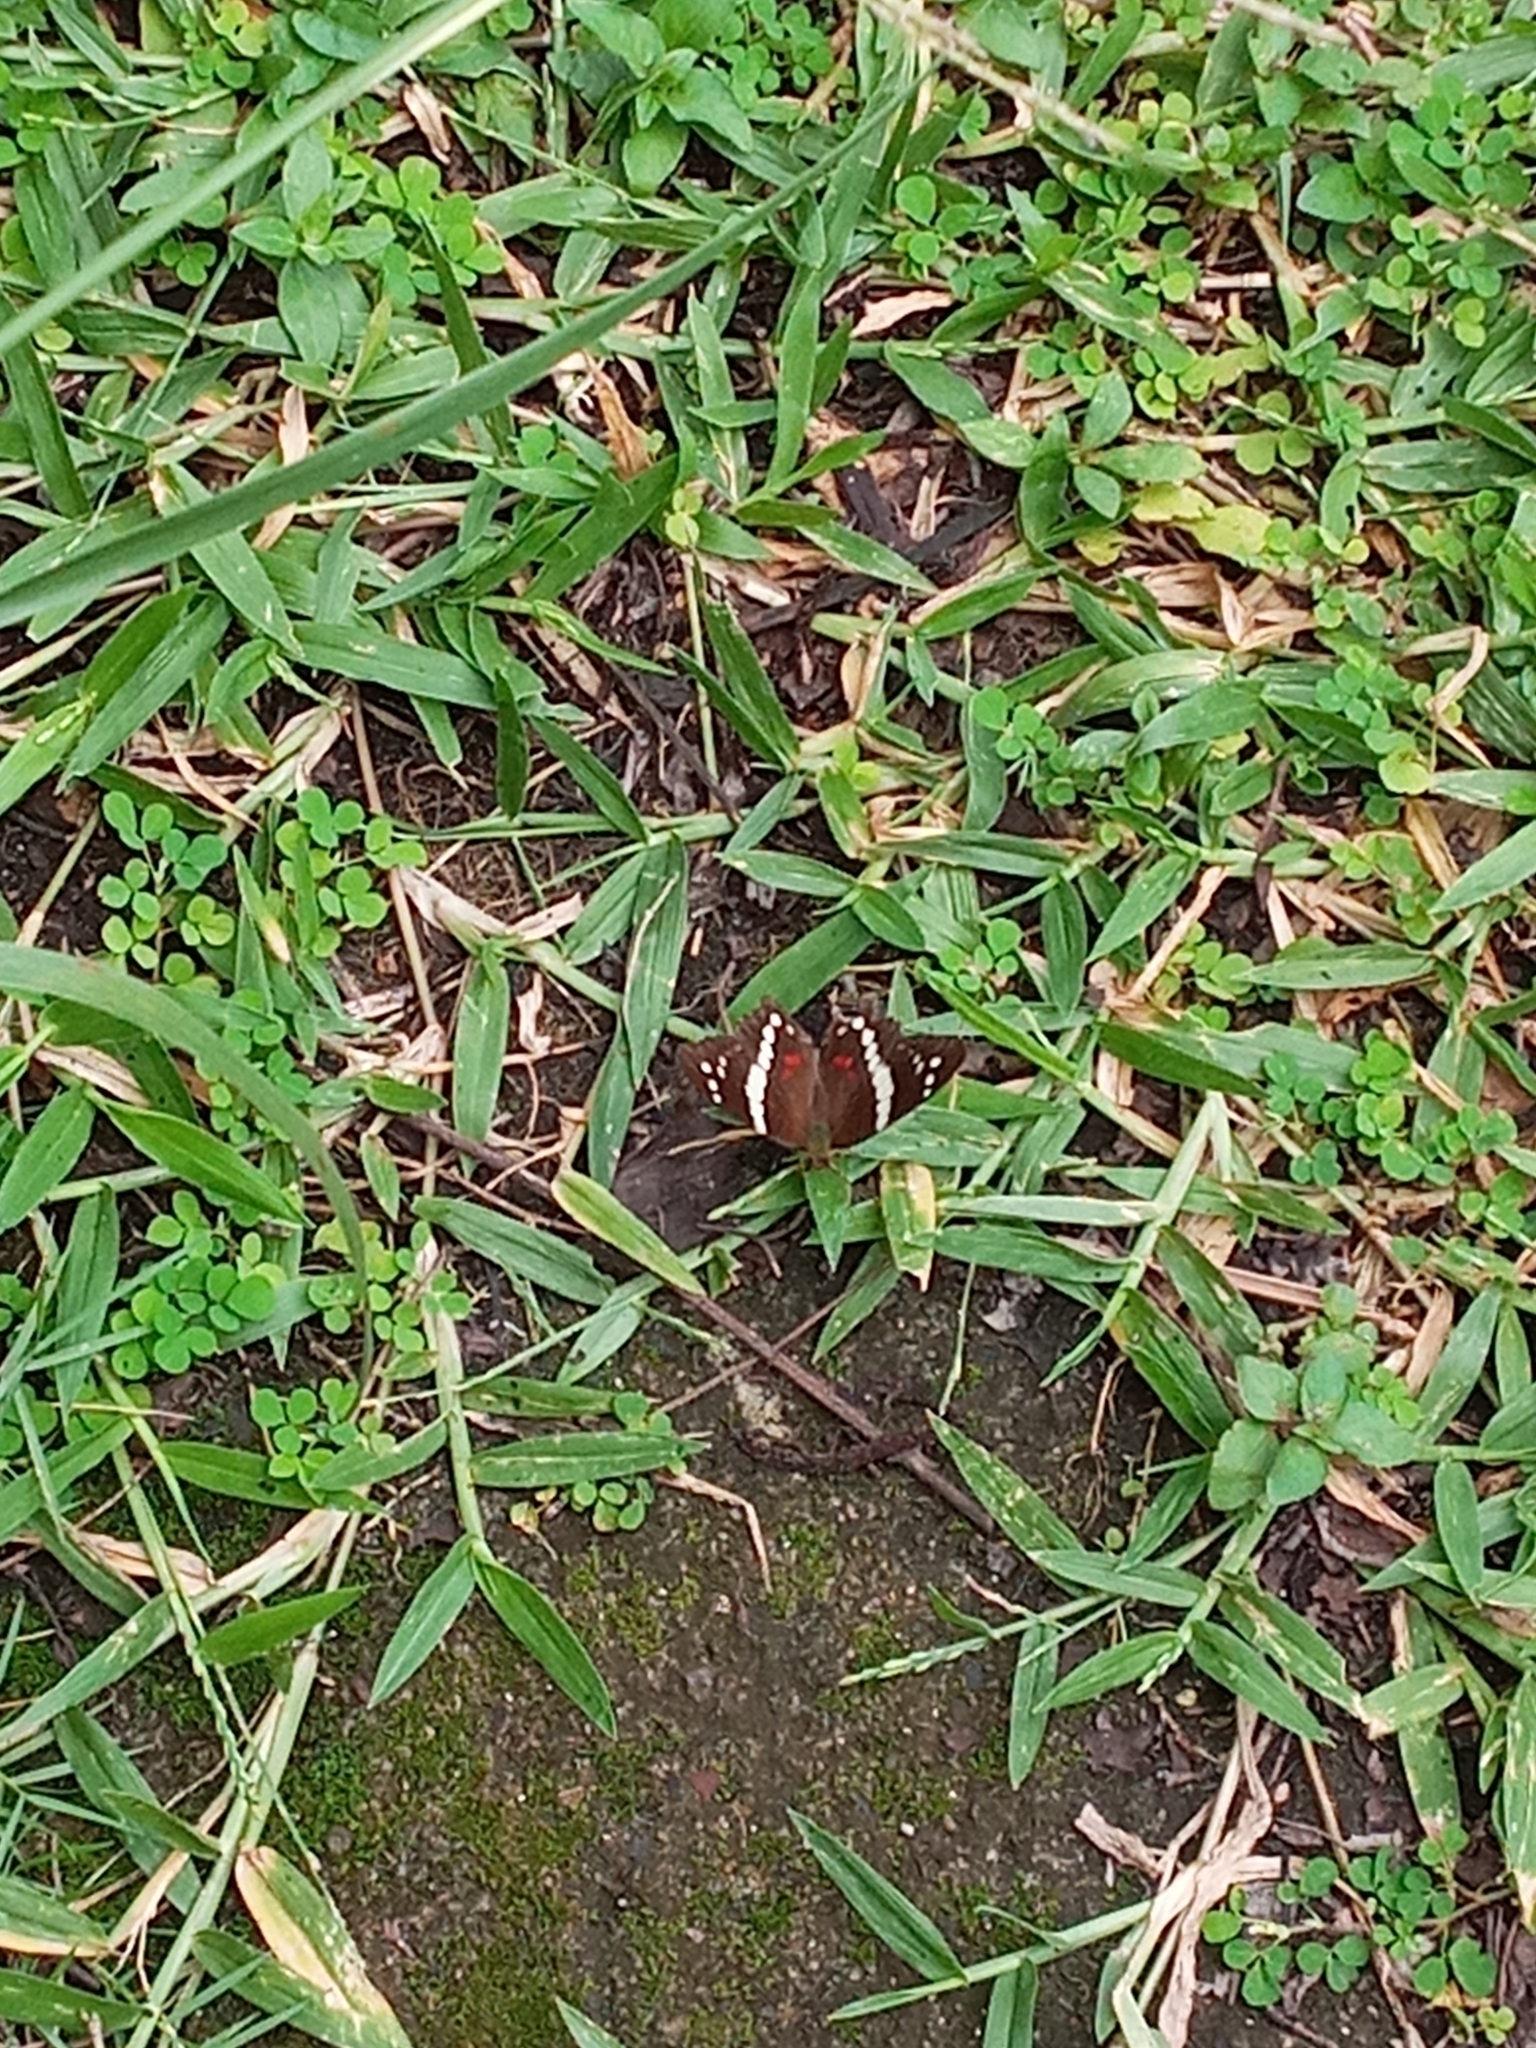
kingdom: Animalia
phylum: Arthropoda
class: Insecta
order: Lepidoptera
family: Nymphalidae
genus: Anartia
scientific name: Anartia fatima
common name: Banded peacock
